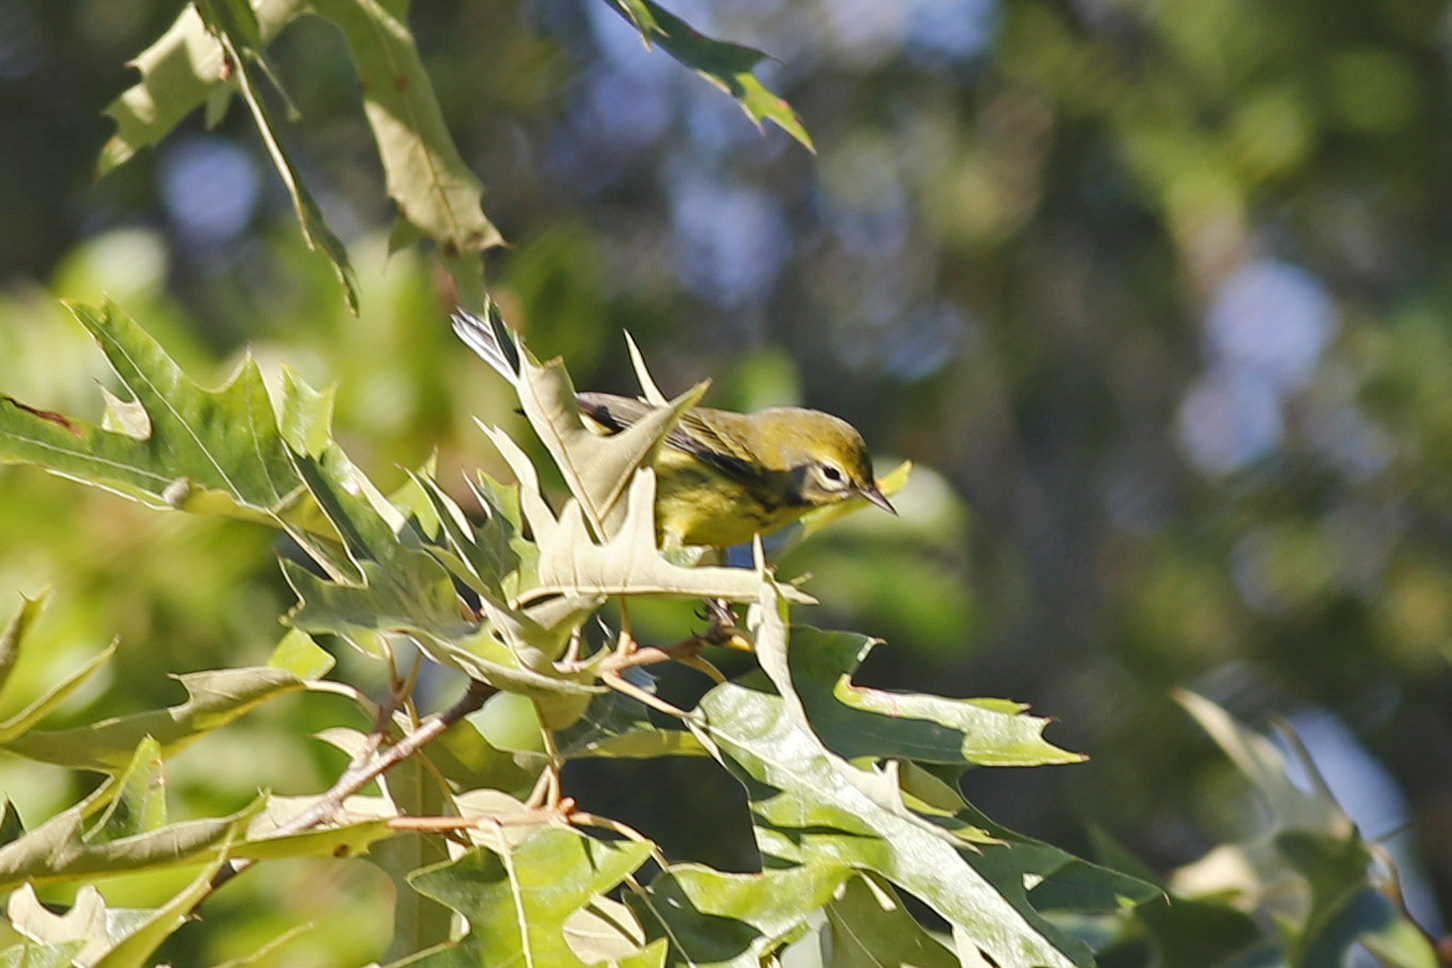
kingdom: Animalia
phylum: Chordata
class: Aves
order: Passeriformes
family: Parulidae
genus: Setophaga
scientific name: Setophaga discolor
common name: Prairie warbler
